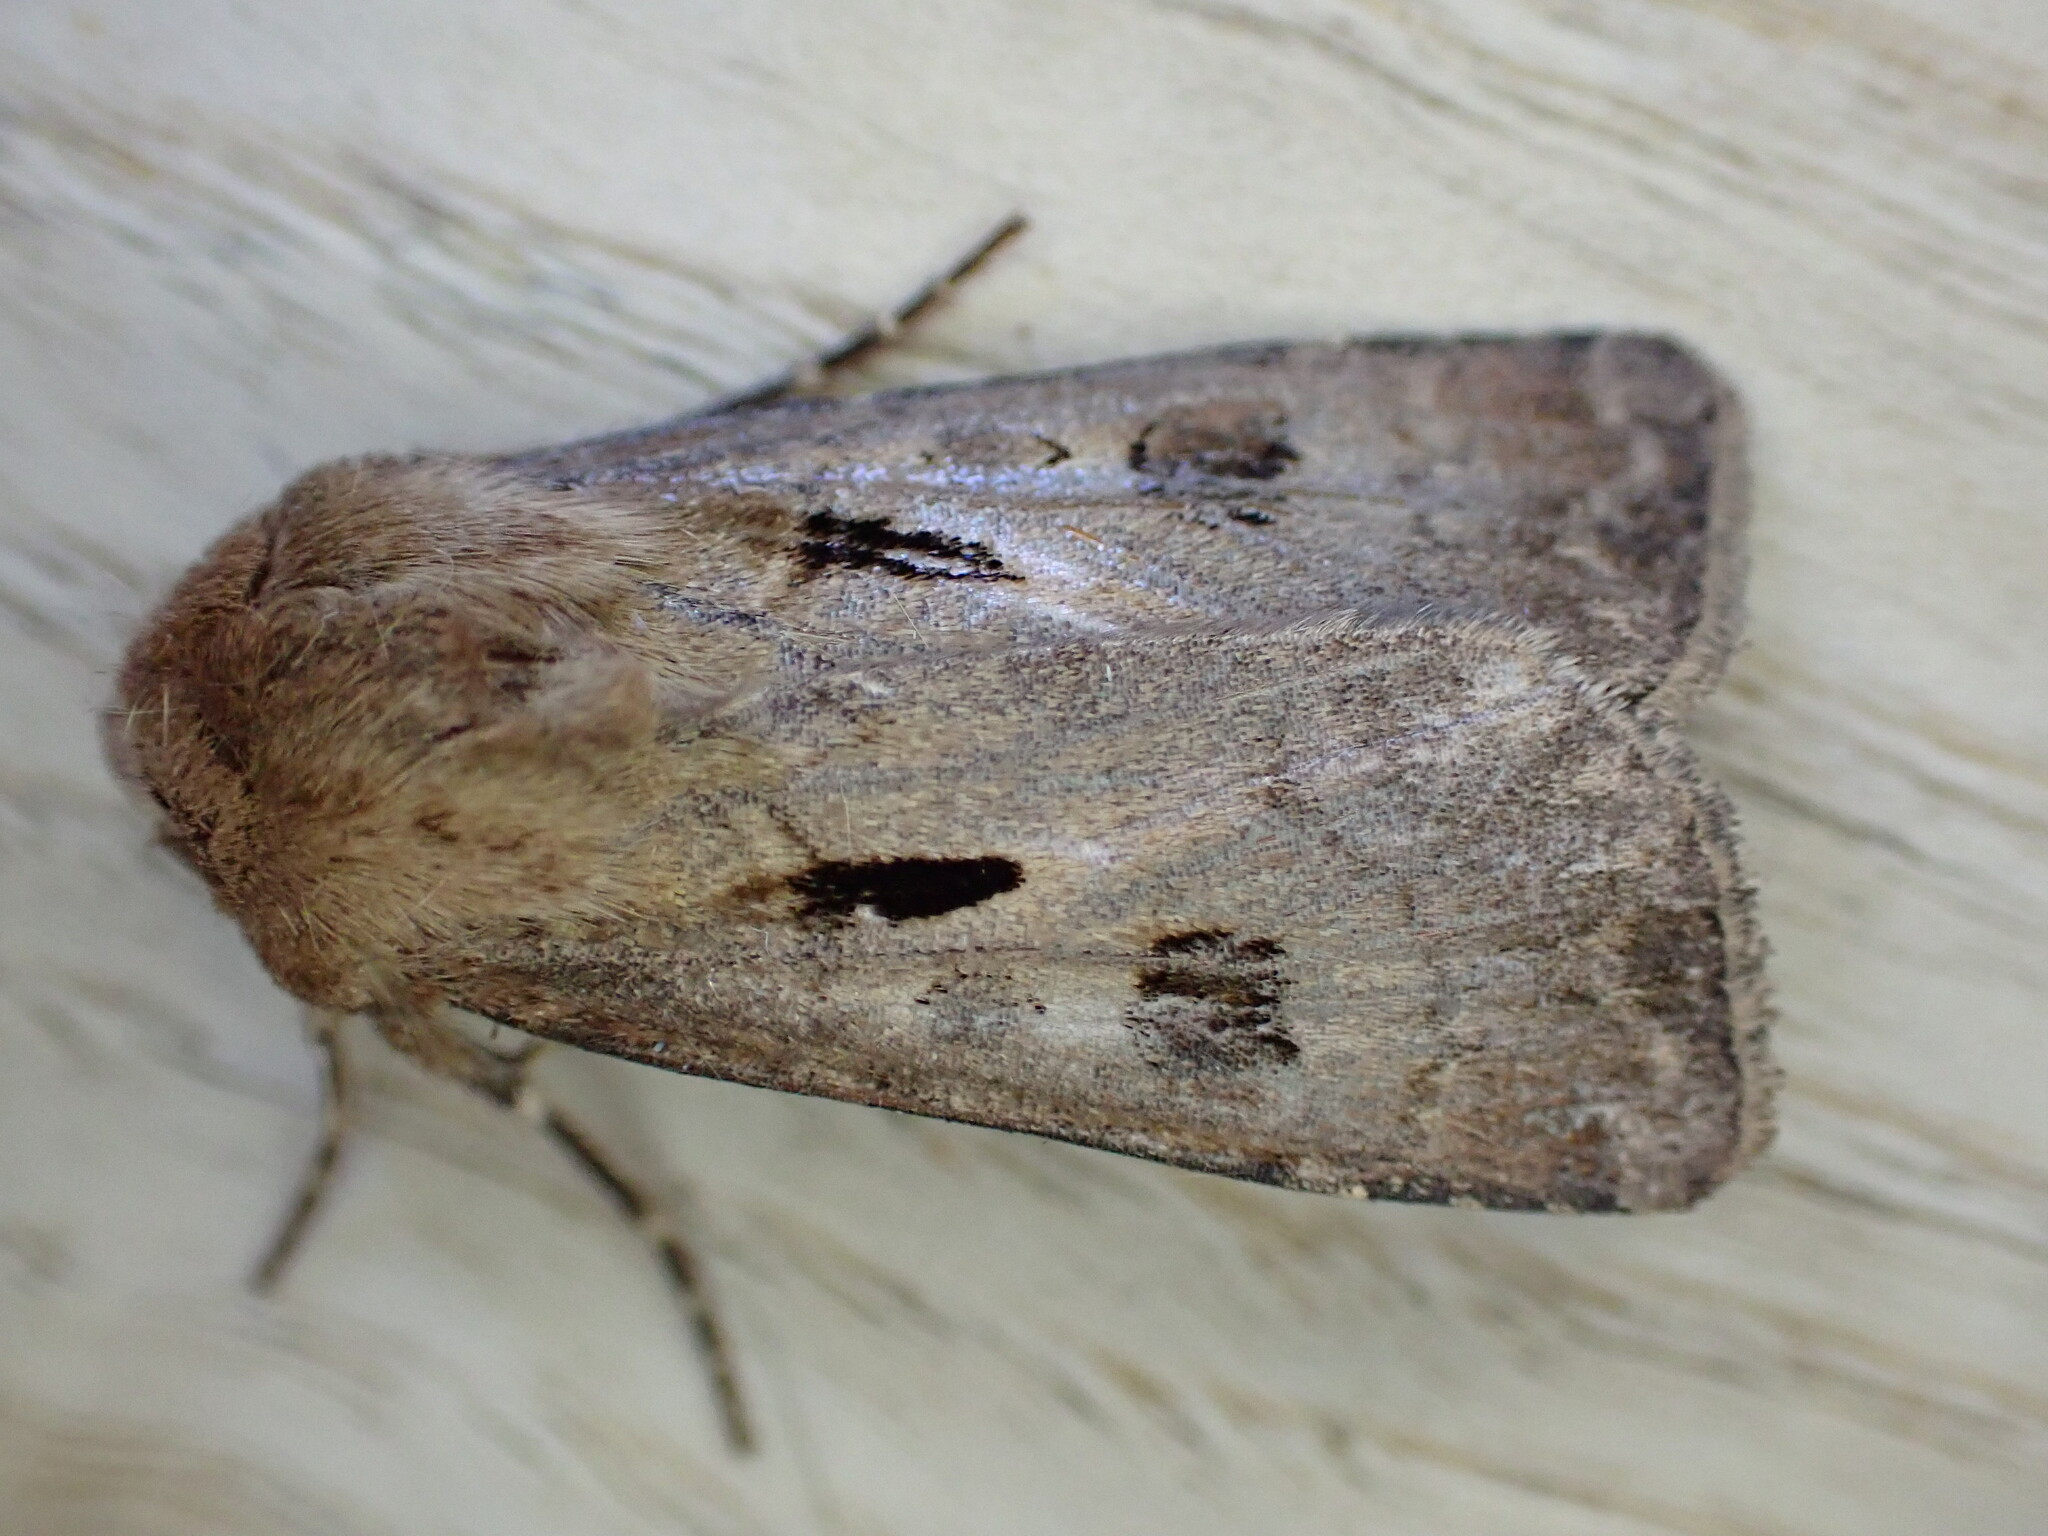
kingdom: Animalia
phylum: Arthropoda
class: Insecta
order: Lepidoptera
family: Noctuidae
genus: Agrotis
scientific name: Agrotis exclamationis
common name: Heart and dart
